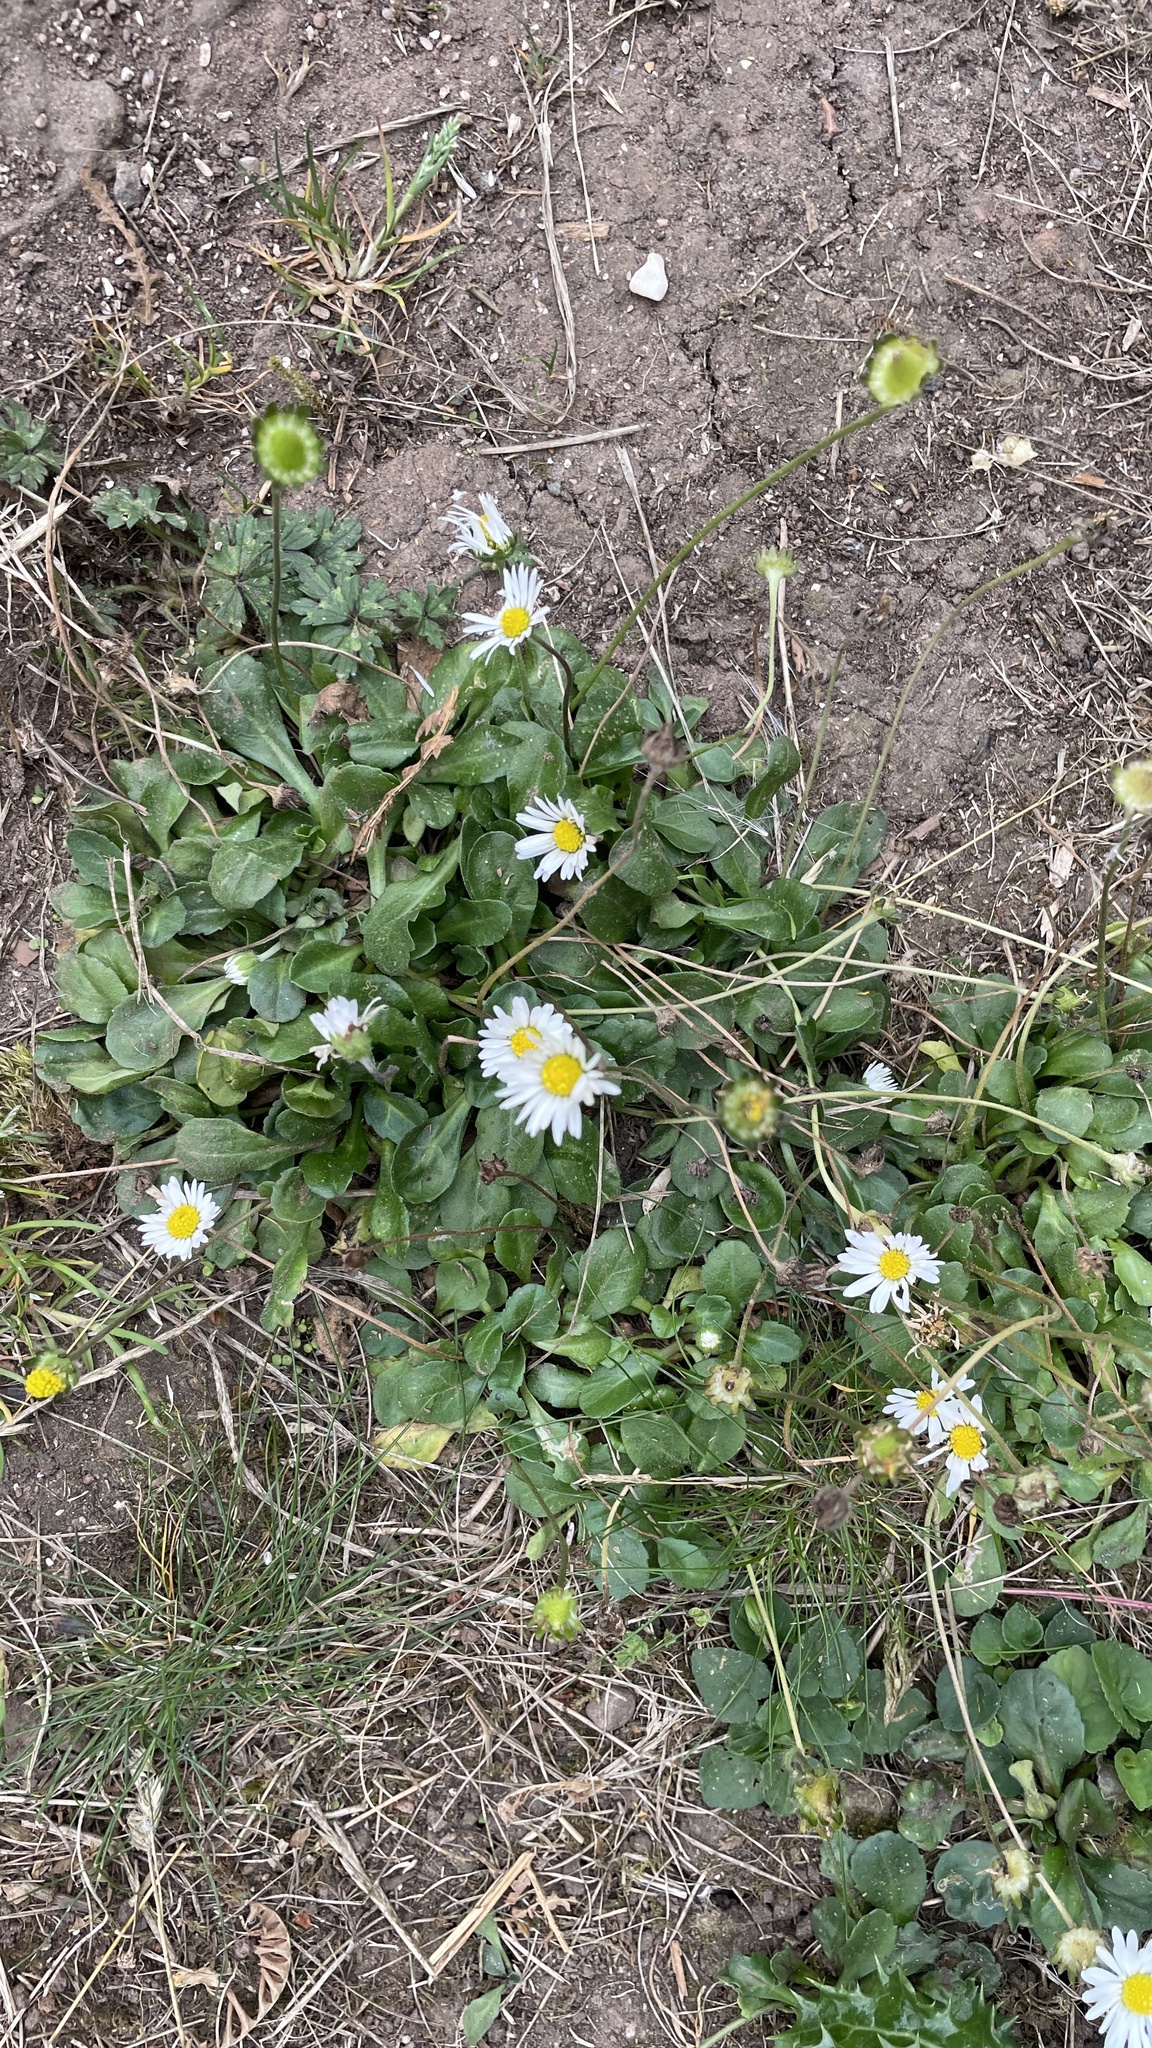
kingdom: Plantae
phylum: Tracheophyta
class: Magnoliopsida
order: Asterales
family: Asteraceae
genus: Bellis
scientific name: Bellis perennis
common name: Lawndaisy
